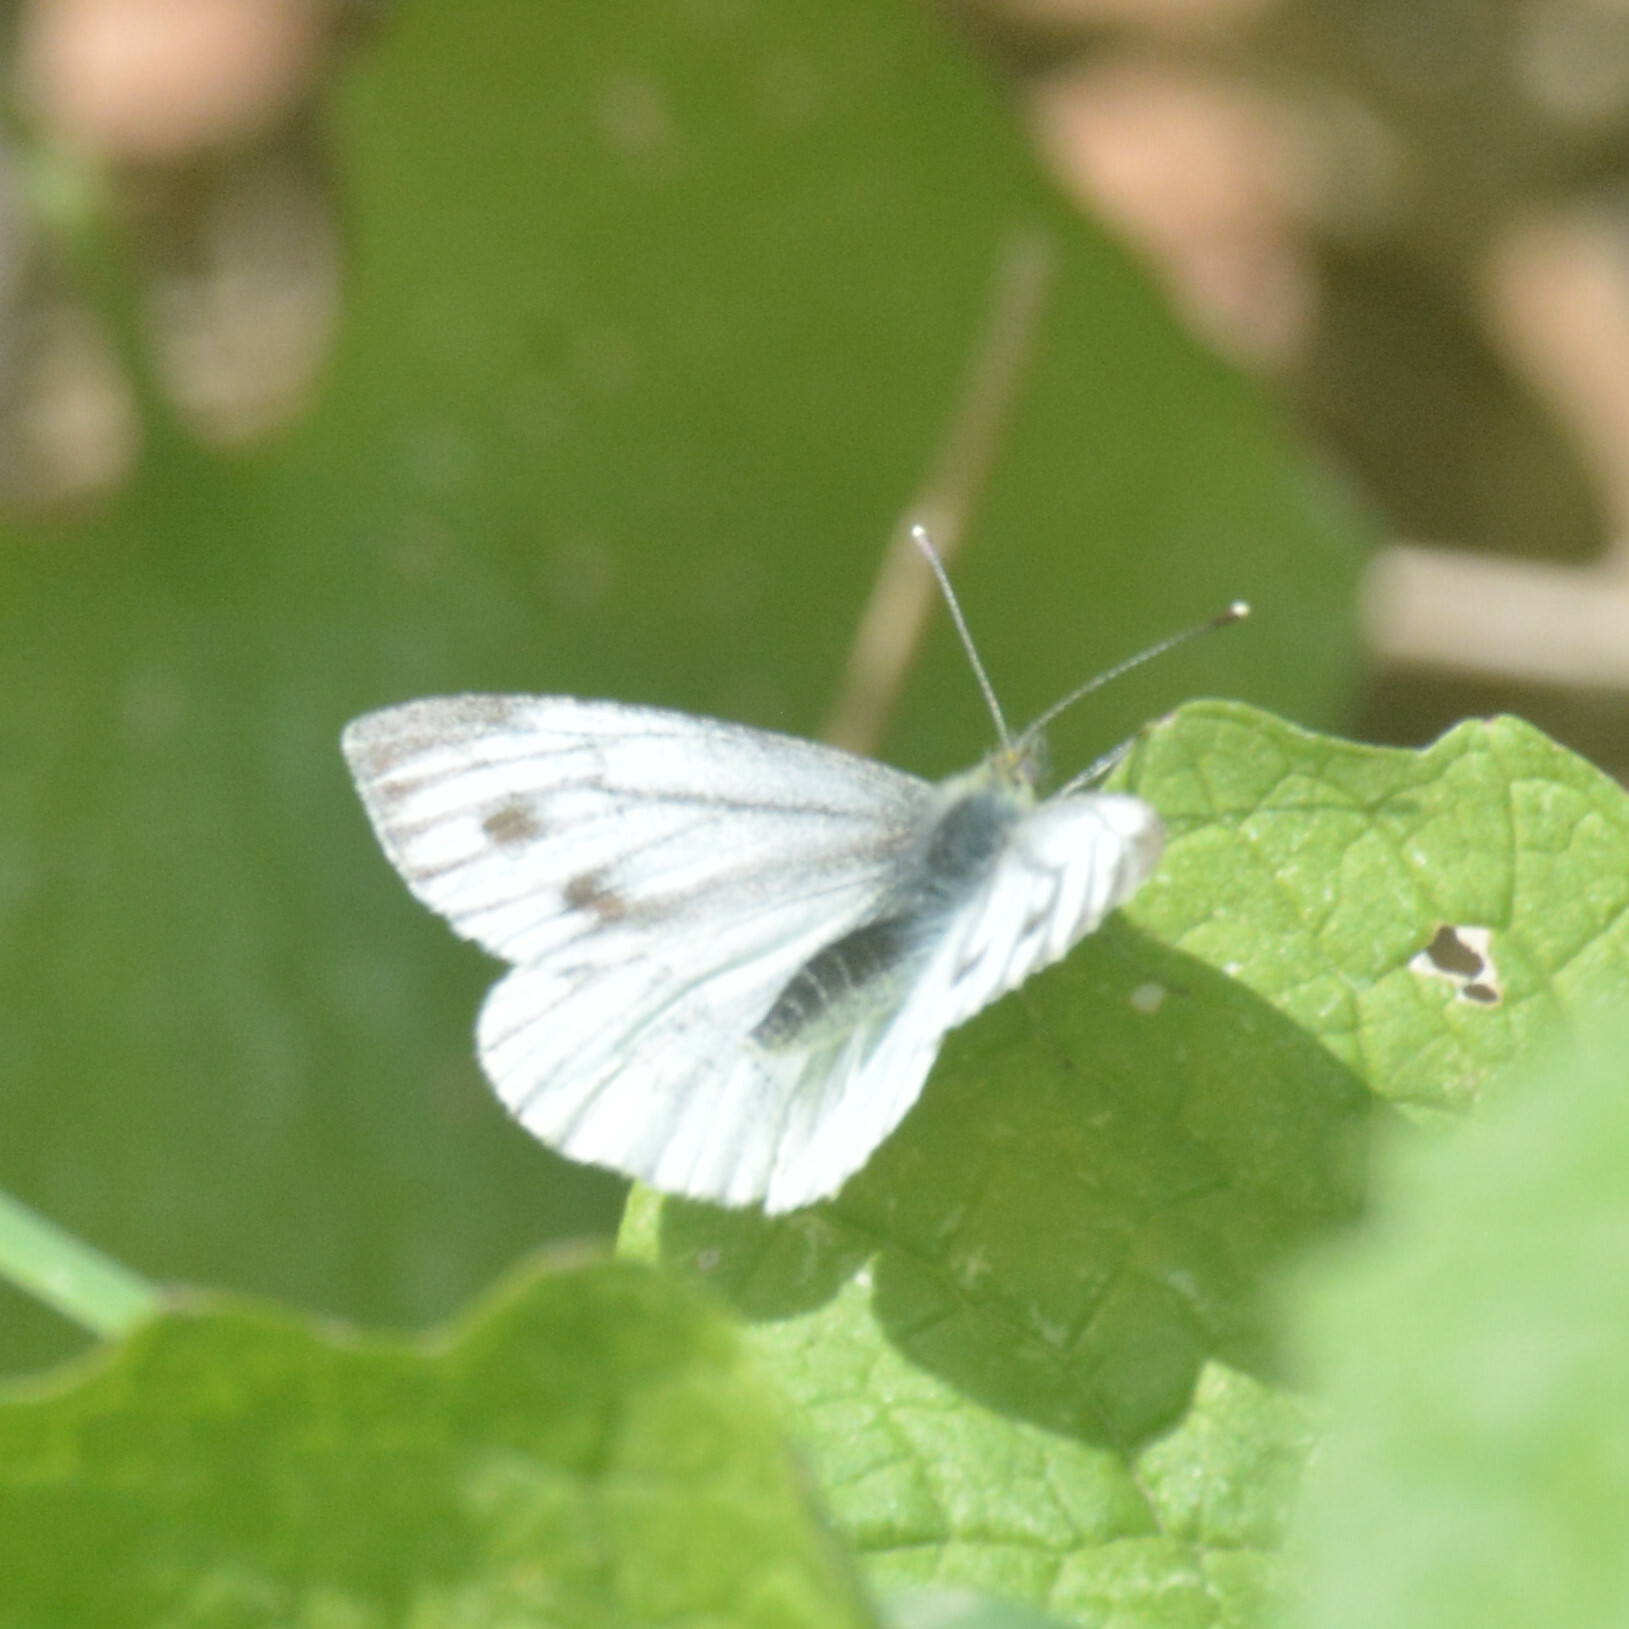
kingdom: Animalia
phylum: Arthropoda
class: Insecta
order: Lepidoptera
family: Pieridae
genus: Pieris
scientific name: Pieris napi
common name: Green-veined white
